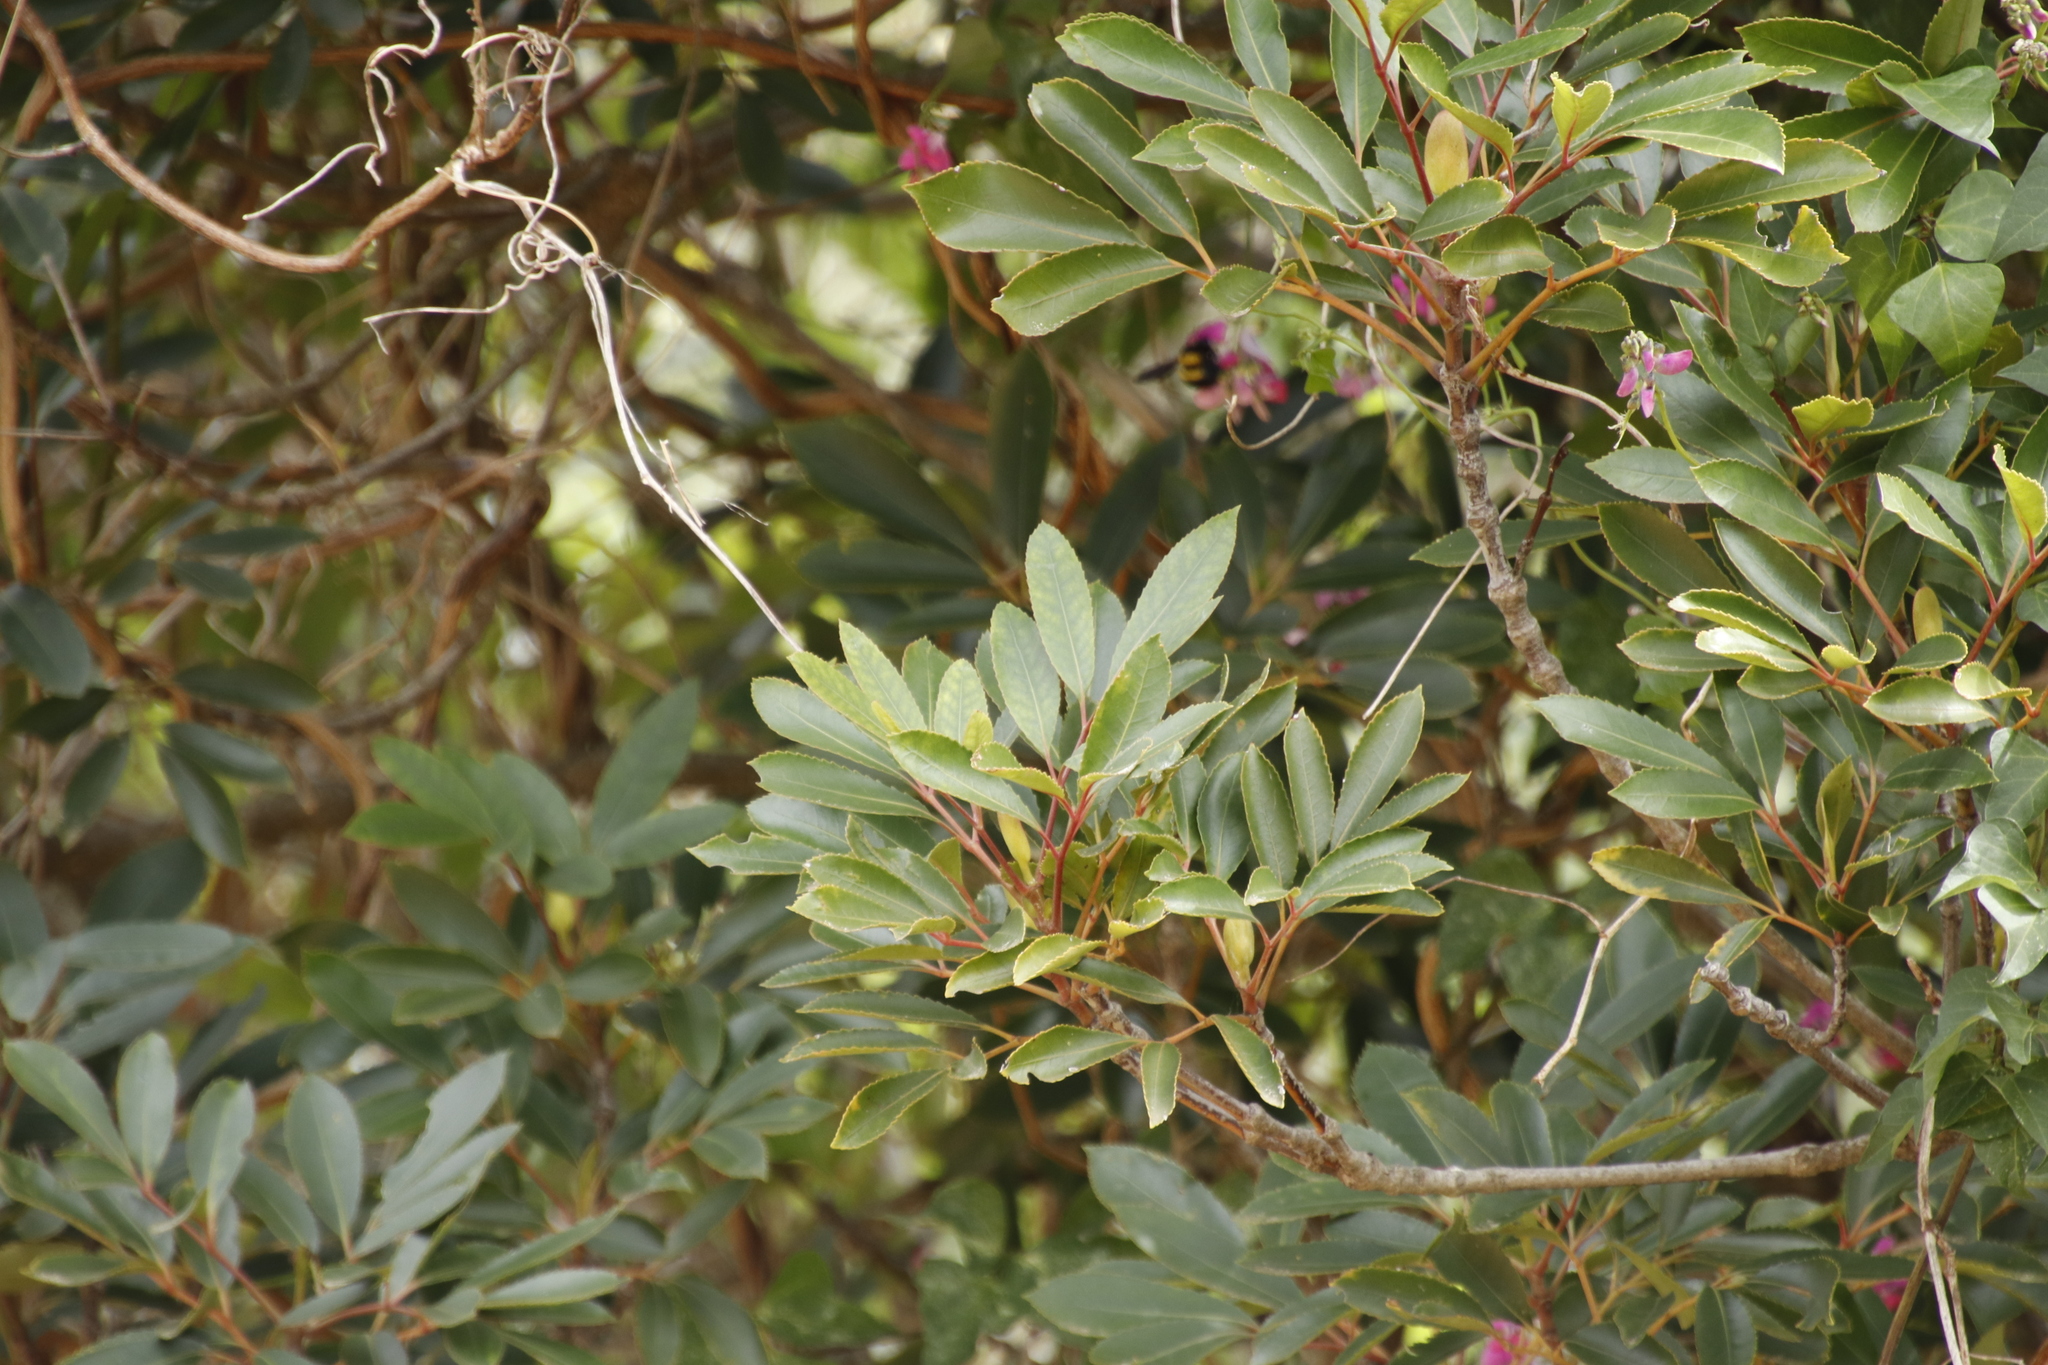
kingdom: Plantae
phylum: Tracheophyta
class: Magnoliopsida
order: Oxalidales
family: Cunoniaceae
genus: Cunonia
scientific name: Cunonia capensis
